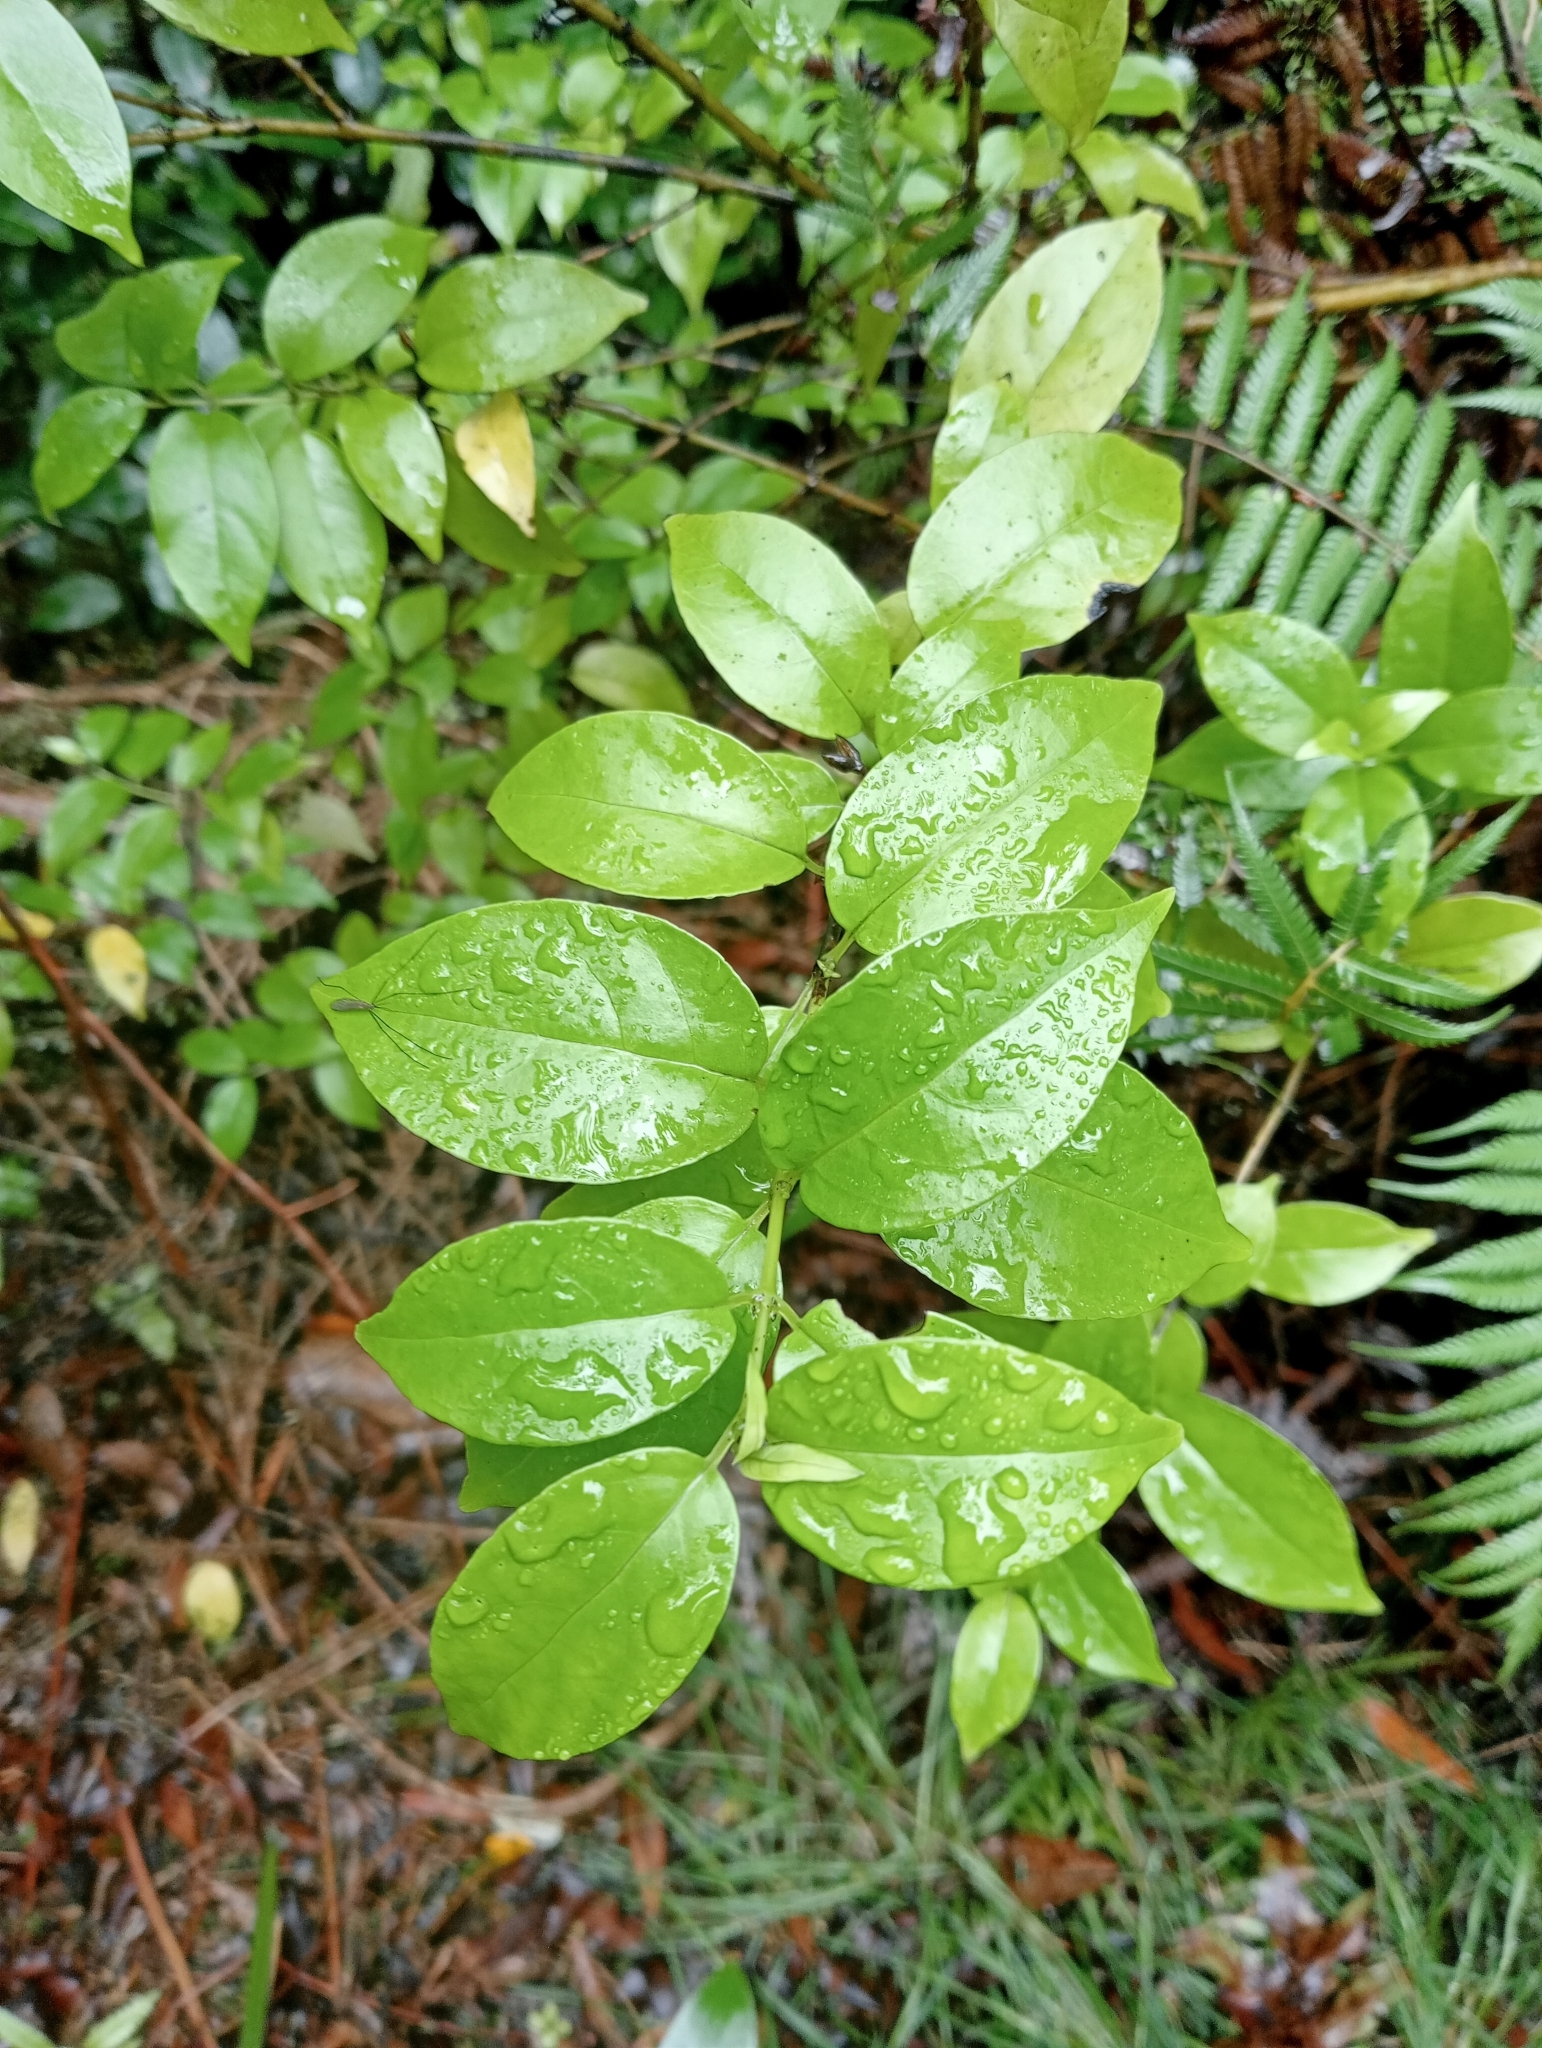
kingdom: Plantae
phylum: Tracheophyta
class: Magnoliopsida
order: Gentianales
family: Loganiaceae
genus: Geniostoma
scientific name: Geniostoma ligustrifolium
